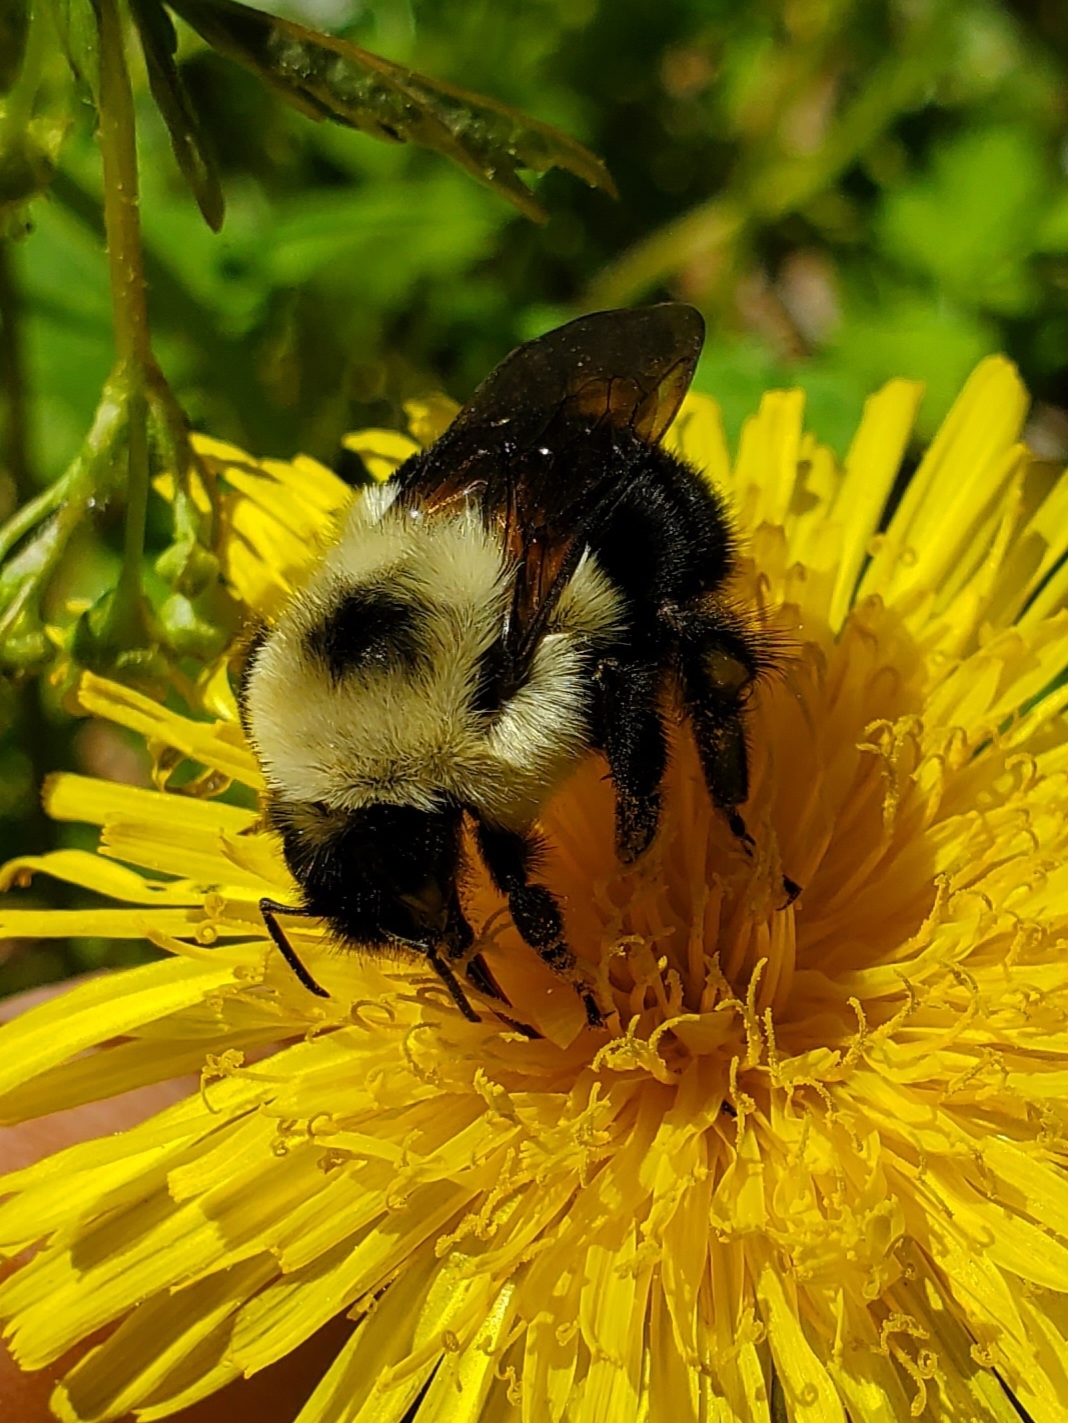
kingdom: Animalia
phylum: Arthropoda
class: Insecta
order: Hymenoptera
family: Apidae
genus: Bombus
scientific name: Bombus bimaculatus
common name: Two-spotted bumble bee
